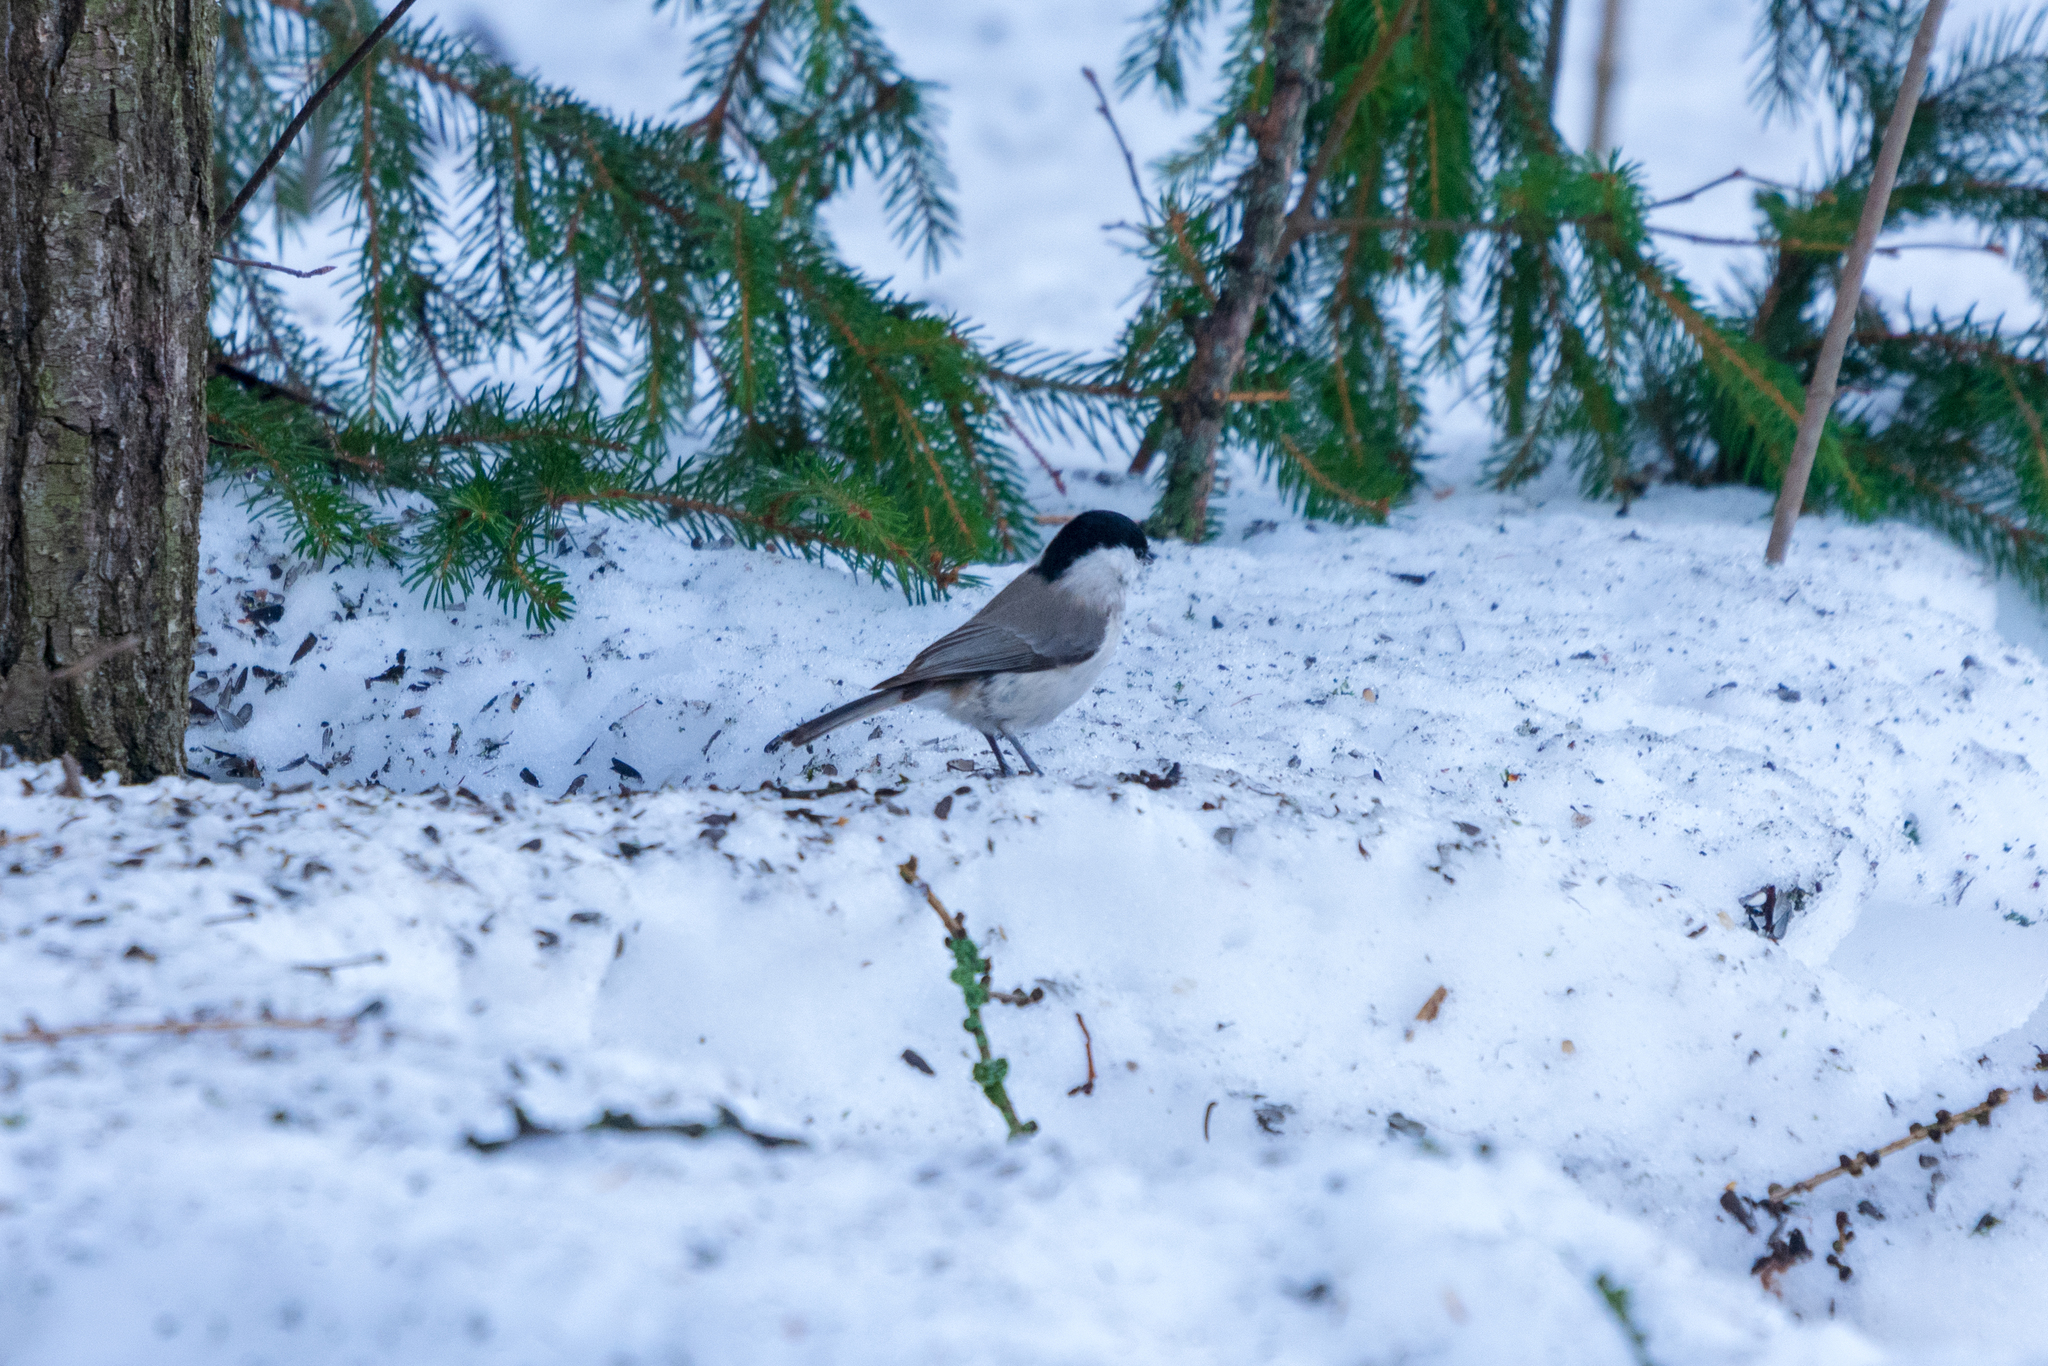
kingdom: Animalia
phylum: Chordata
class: Aves
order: Passeriformes
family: Paridae
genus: Poecile
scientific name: Poecile palustris
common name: Marsh tit
